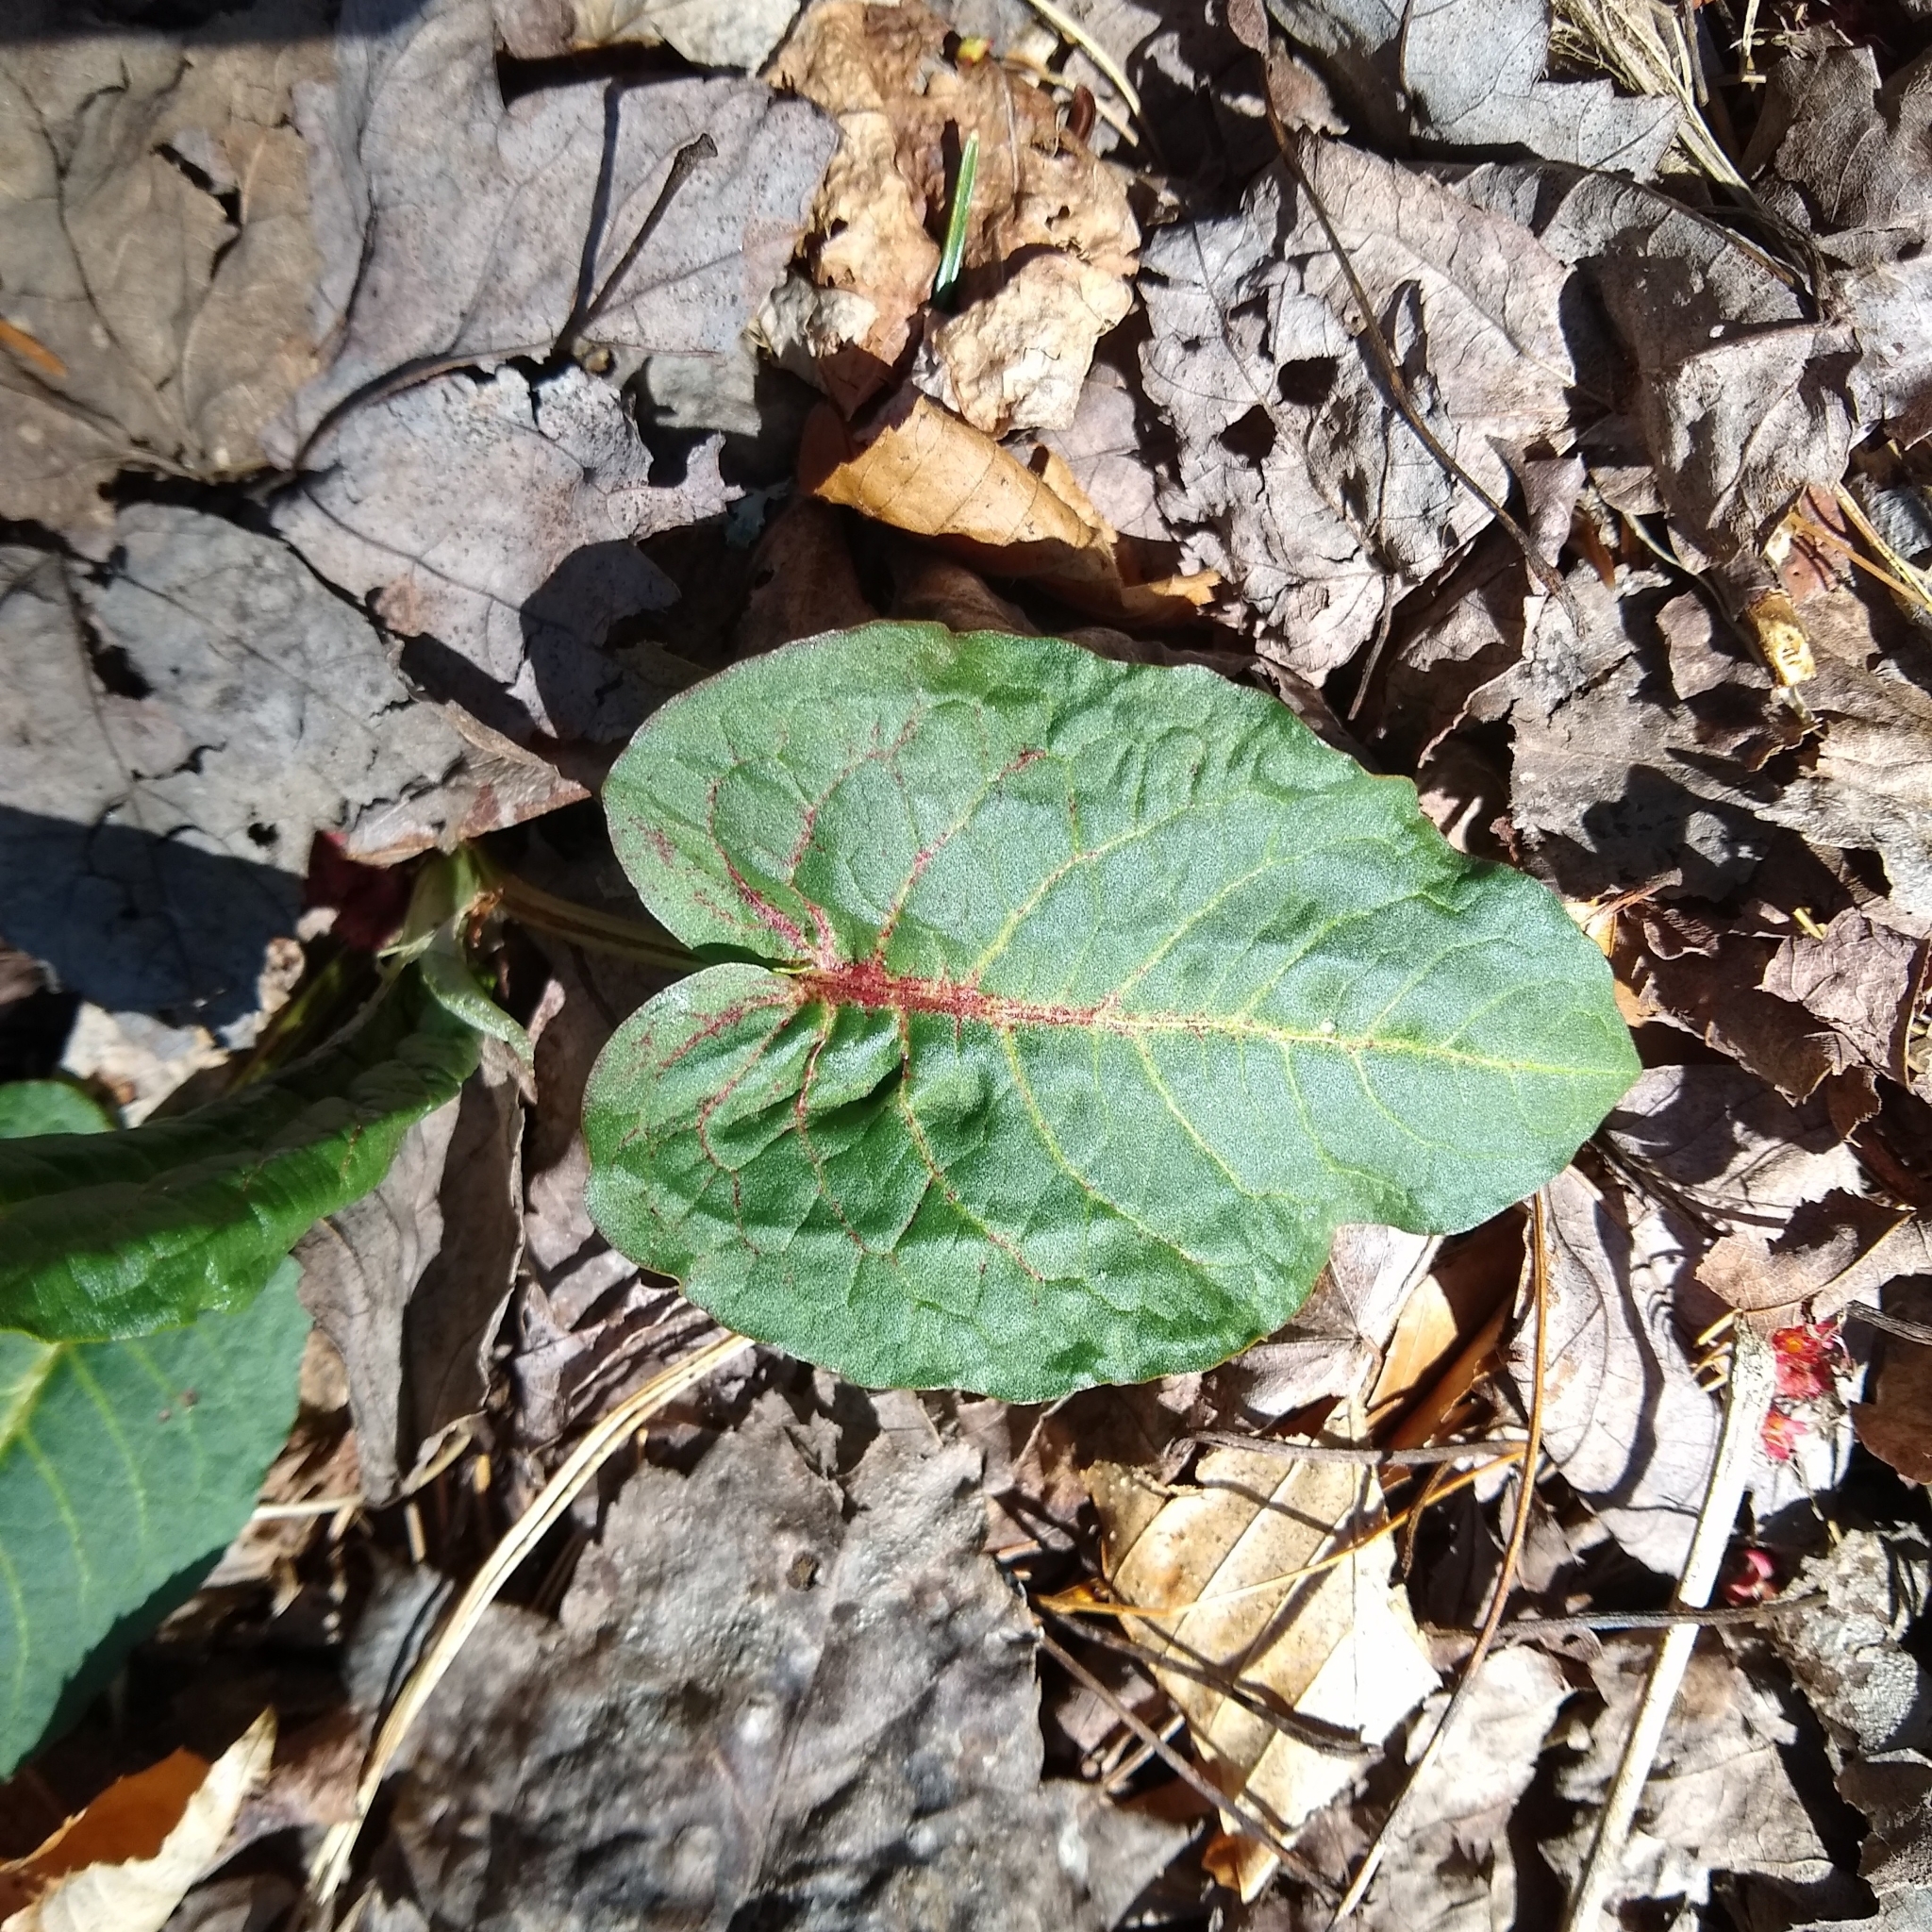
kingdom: Plantae
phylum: Tracheophyta
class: Magnoliopsida
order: Caryophyllales
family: Polygonaceae
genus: Rumex
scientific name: Rumex obtusifolius
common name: Bitter dock
